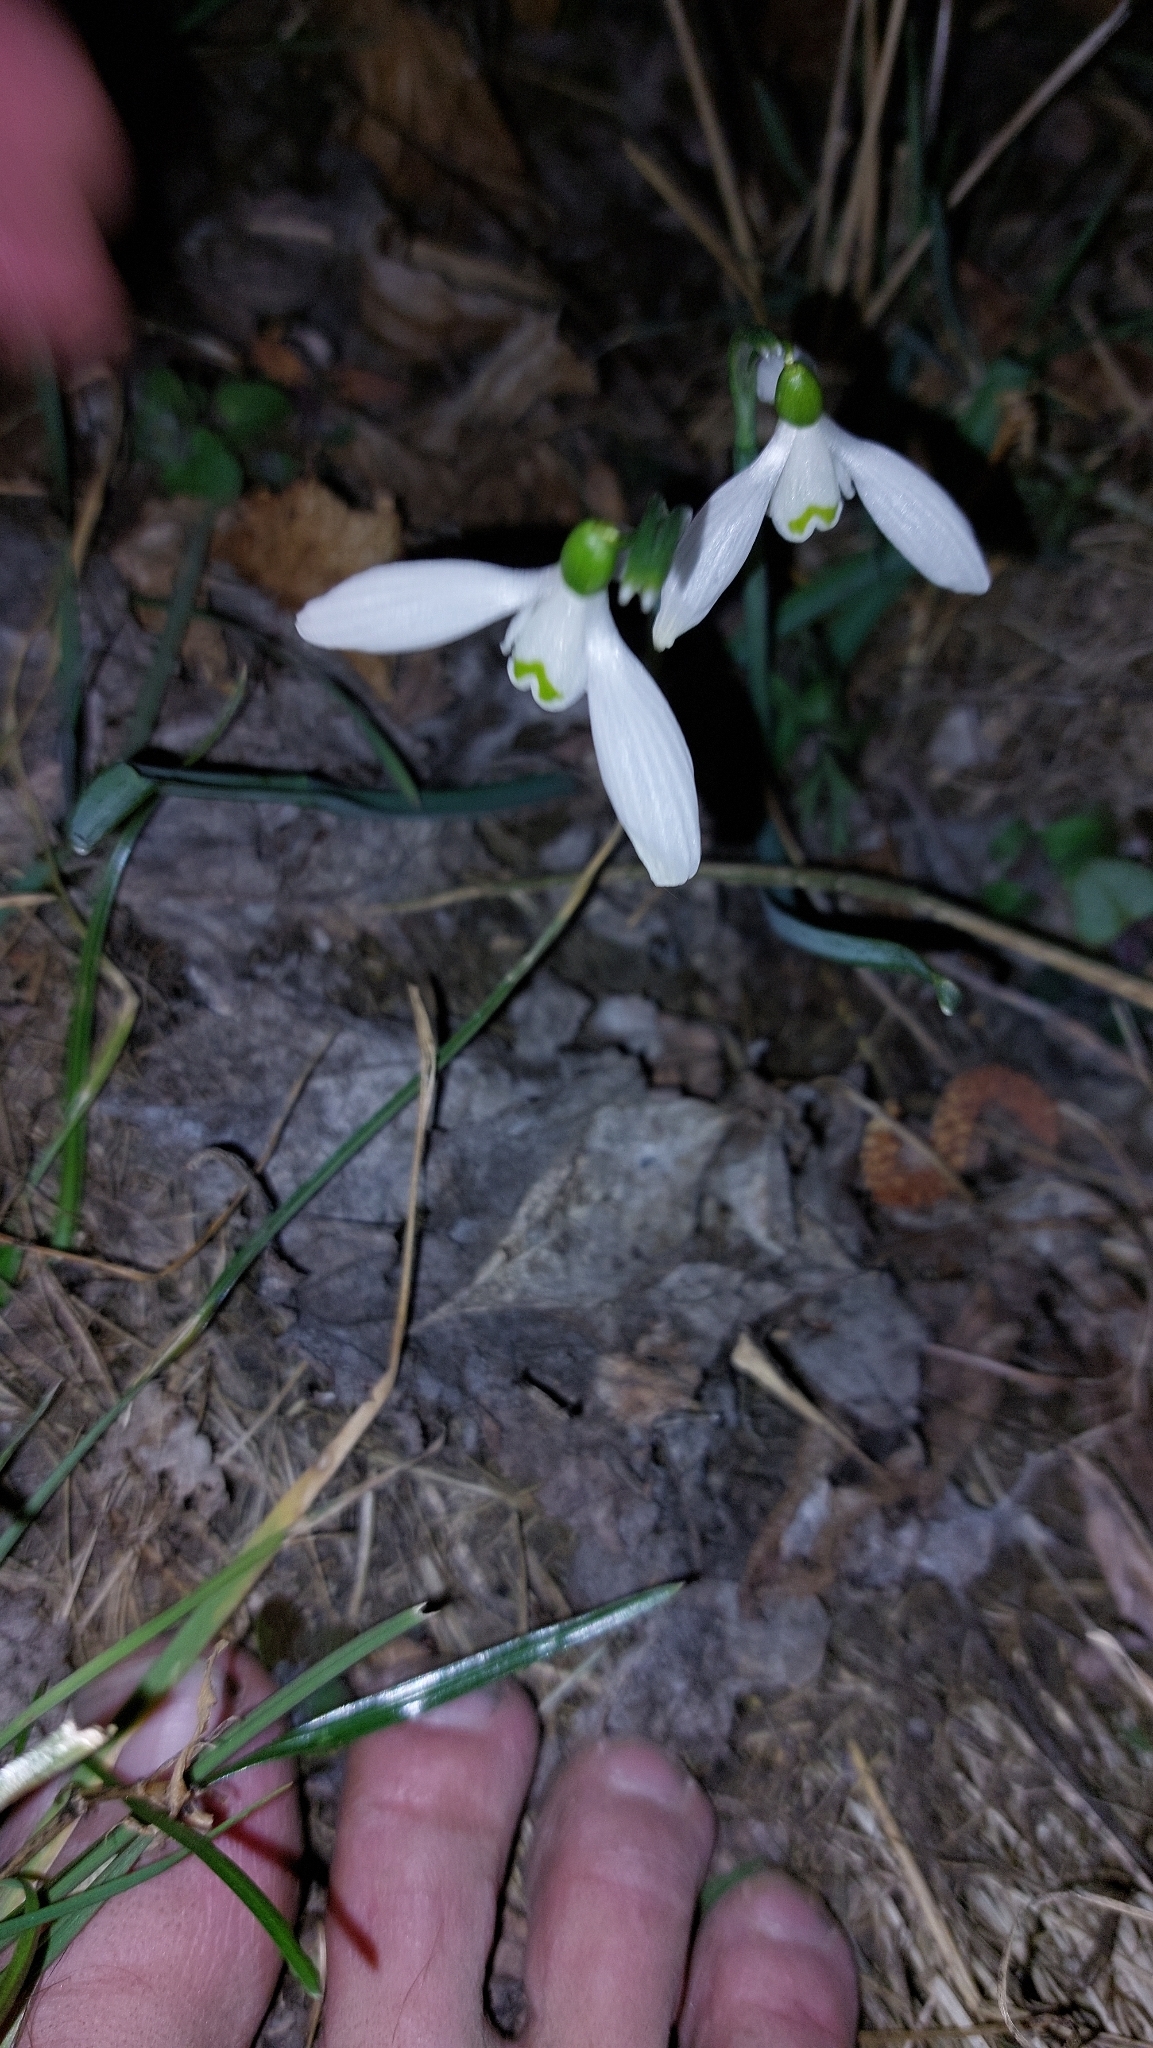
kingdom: Plantae
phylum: Tracheophyta
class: Liliopsida
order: Asparagales
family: Amaryllidaceae
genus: Galanthus
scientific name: Galanthus nivalis
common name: Snowdrop
